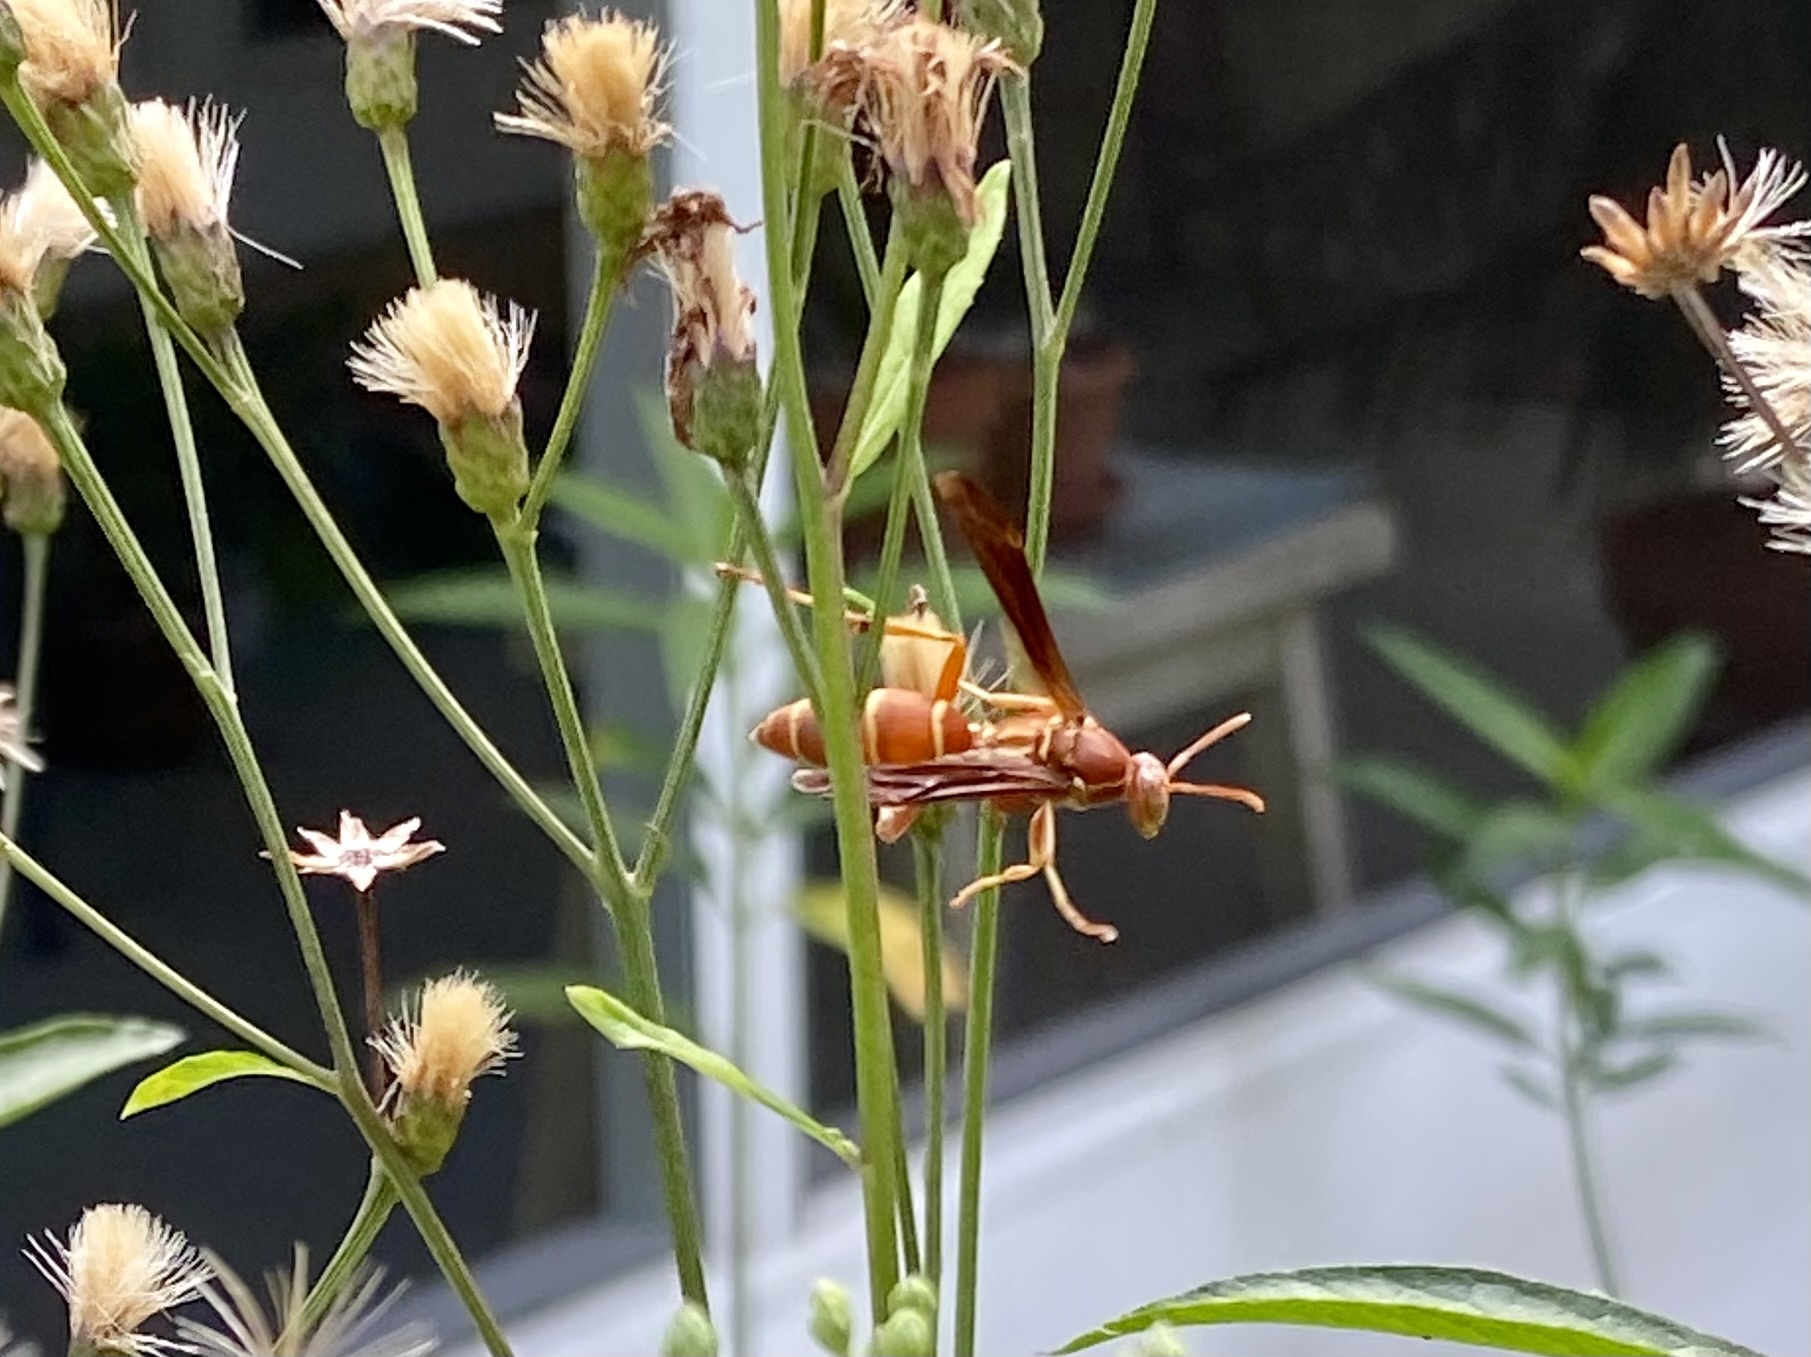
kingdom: Animalia
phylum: Arthropoda
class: Insecta
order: Hymenoptera
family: Eumenidae
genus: Polistes
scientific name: Polistes bellicosus
